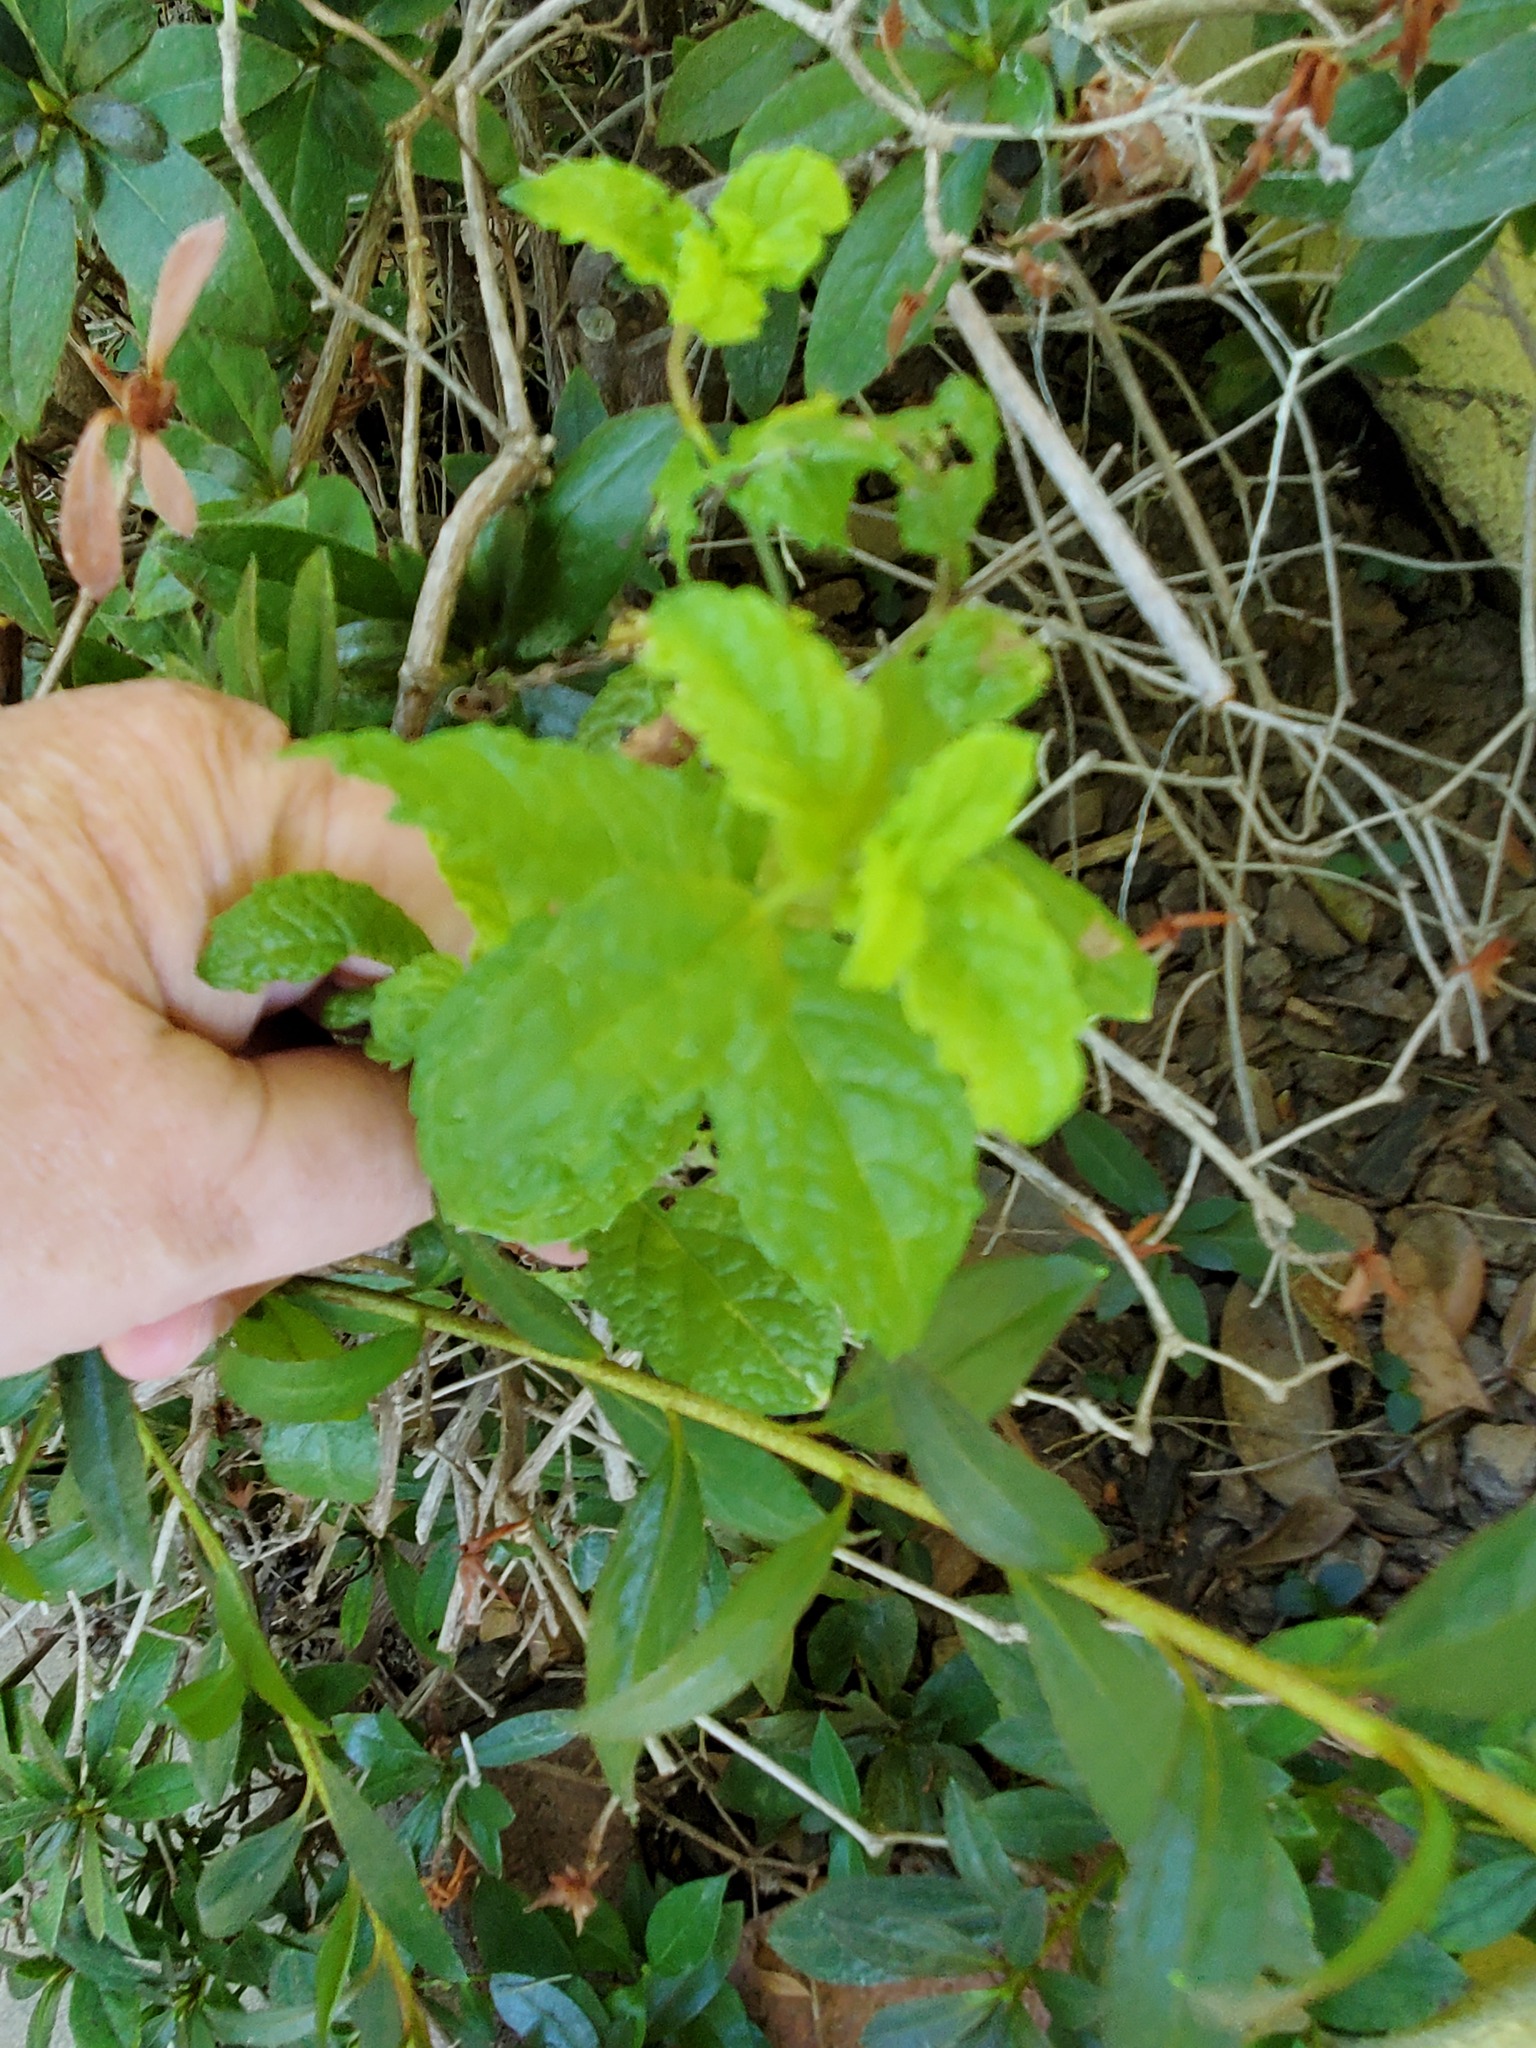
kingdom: Plantae
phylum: Tracheophyta
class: Magnoliopsida
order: Lamiales
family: Lamiaceae
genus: Mentha
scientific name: Mentha spicata
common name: Spearmint
